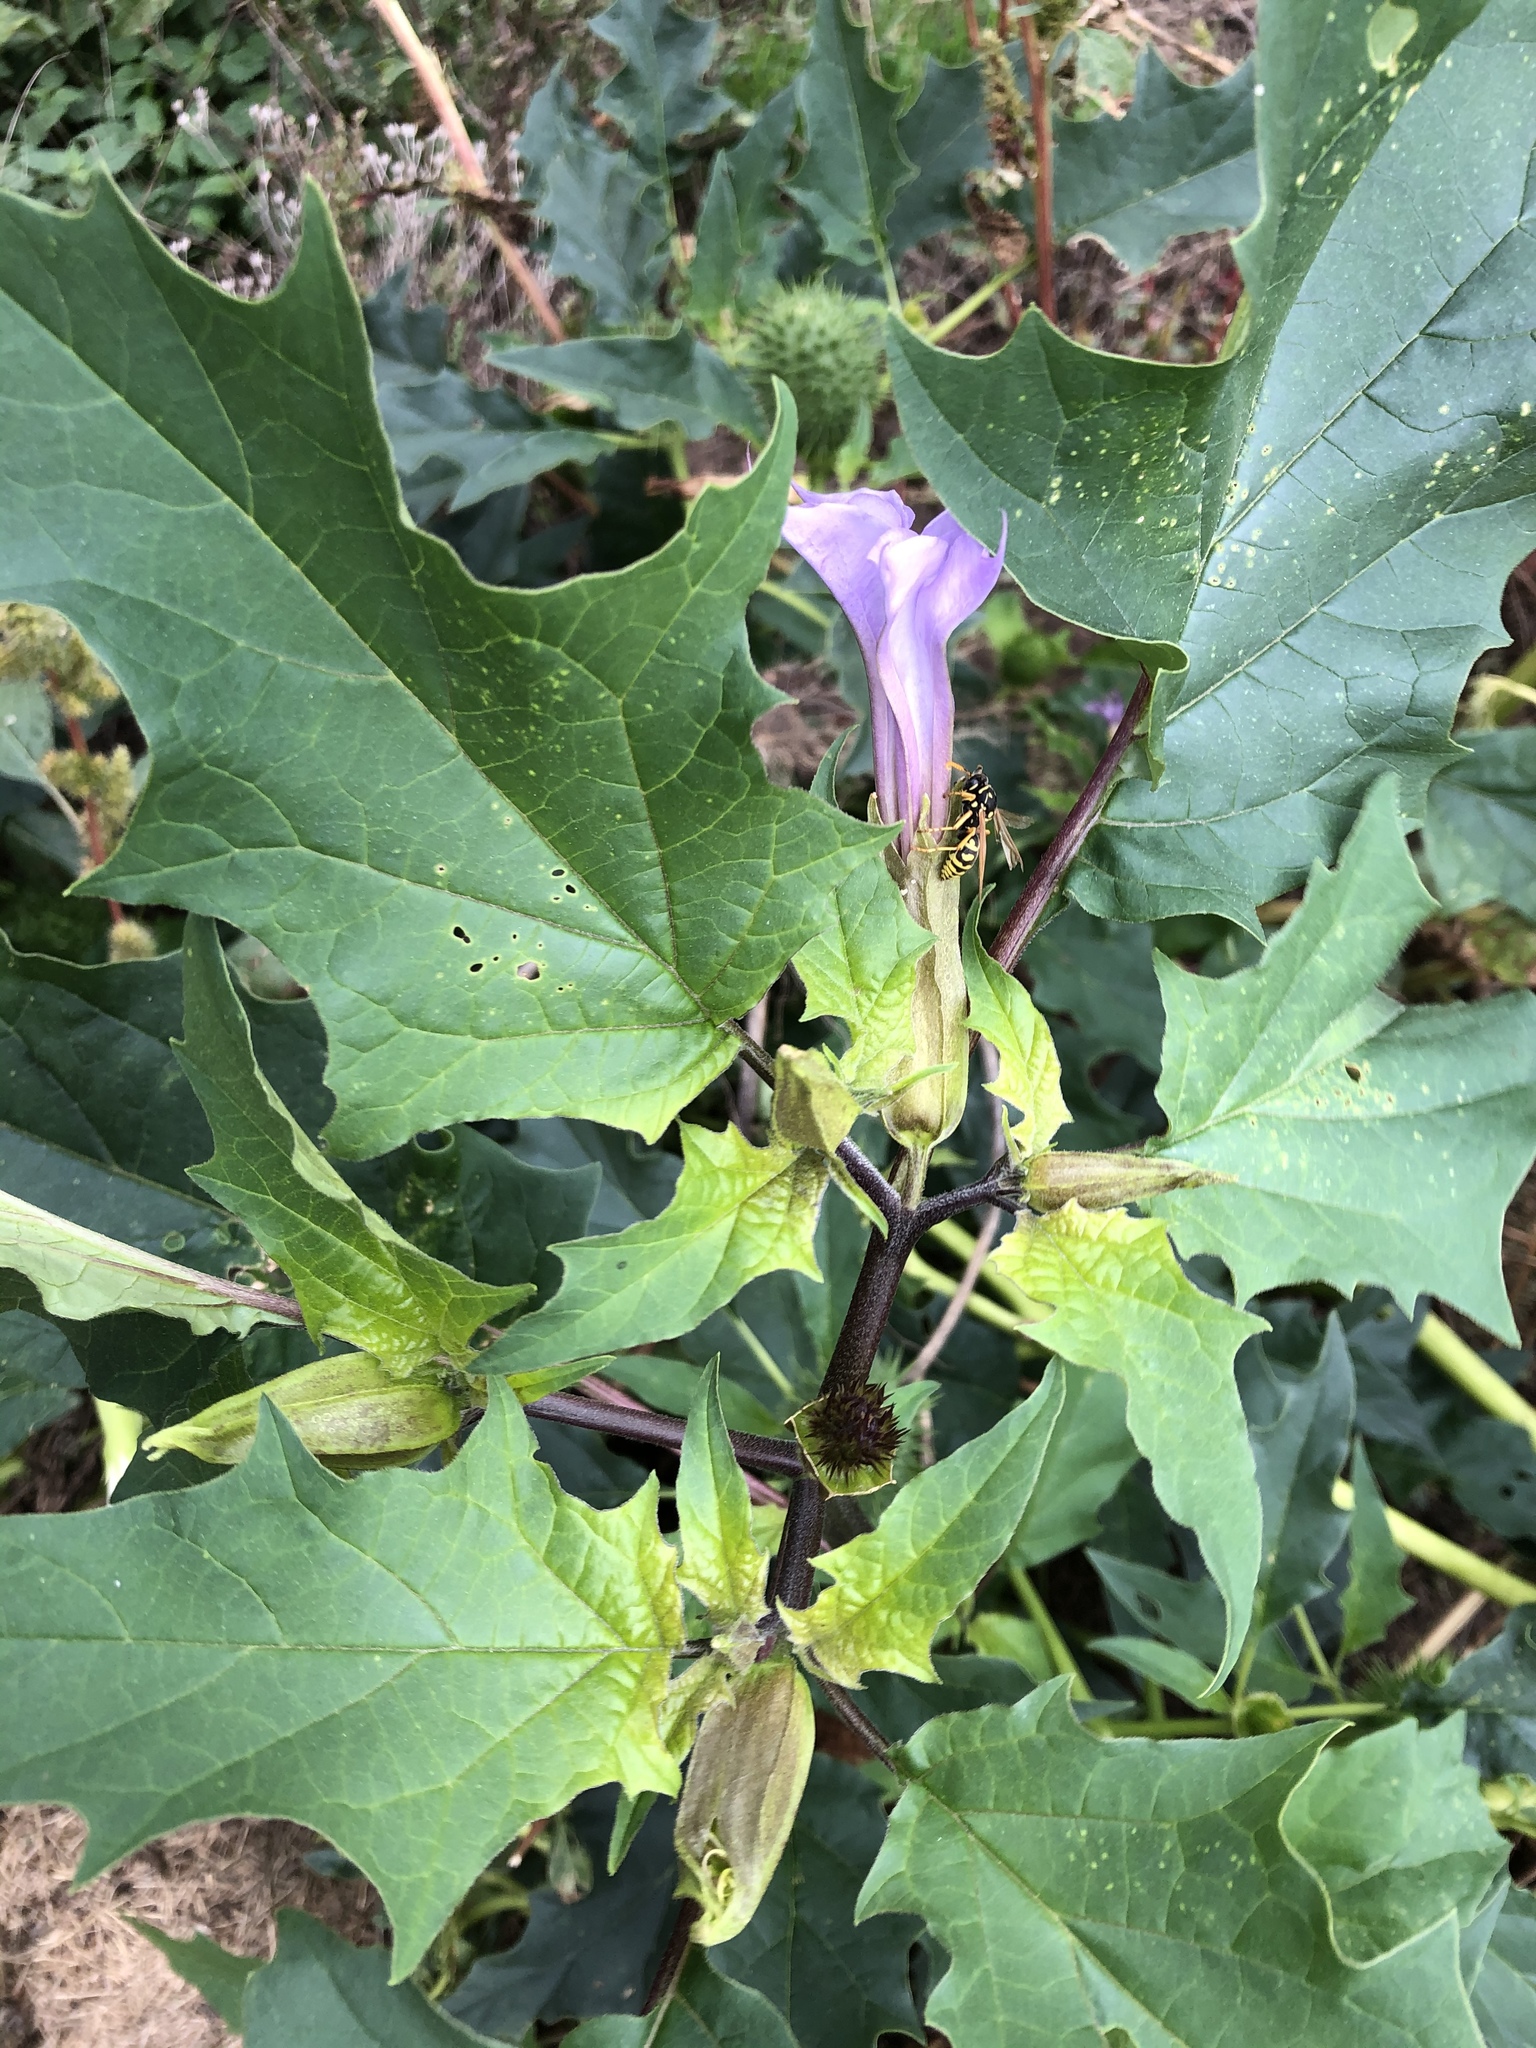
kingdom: Plantae
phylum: Tracheophyta
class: Magnoliopsida
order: Solanales
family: Solanaceae
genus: Datura
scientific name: Datura stramonium
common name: Thorn-apple
